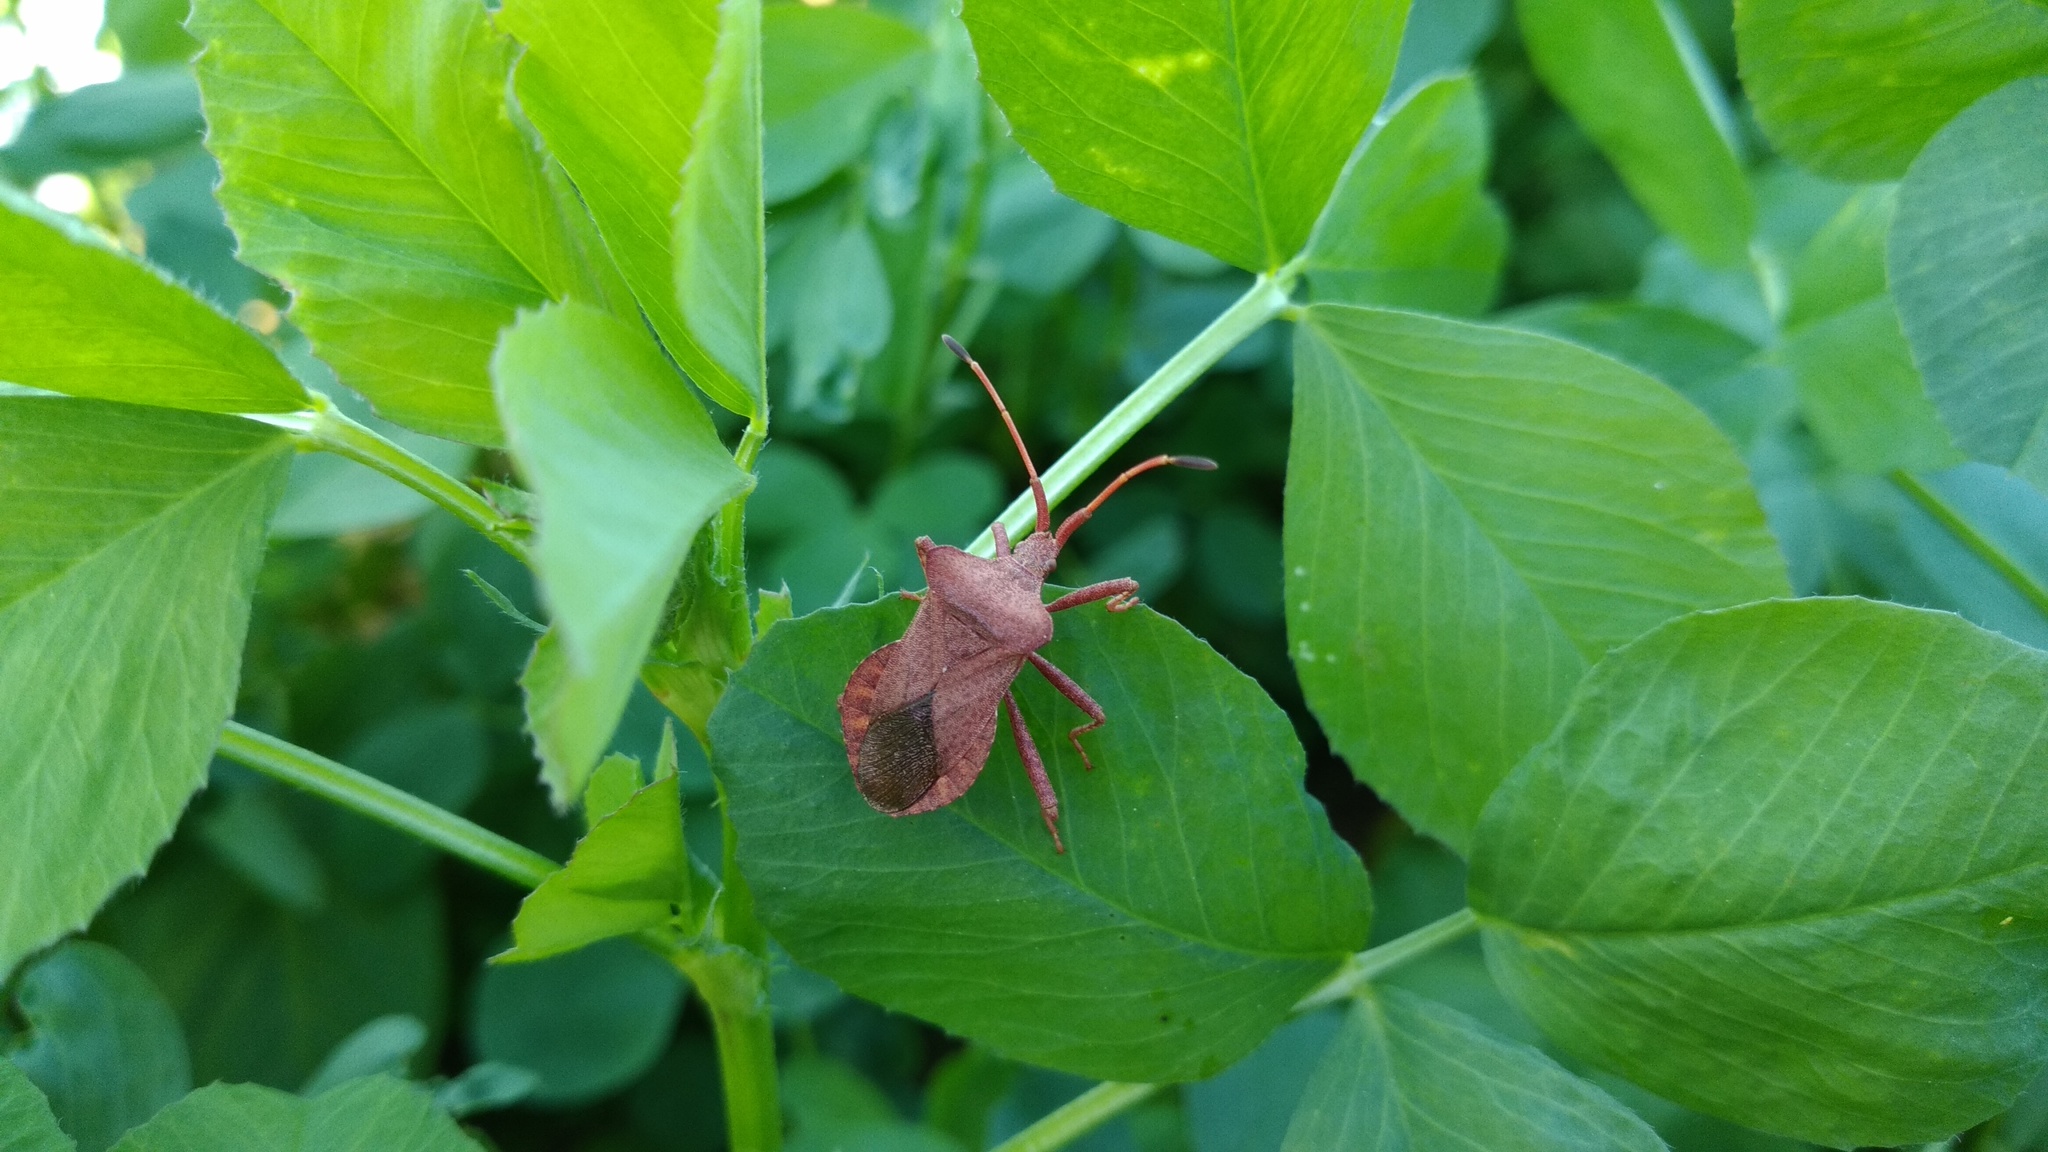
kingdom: Animalia
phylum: Arthropoda
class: Insecta
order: Hemiptera
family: Coreidae
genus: Coreus
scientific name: Coreus marginatus
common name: Dock bug
